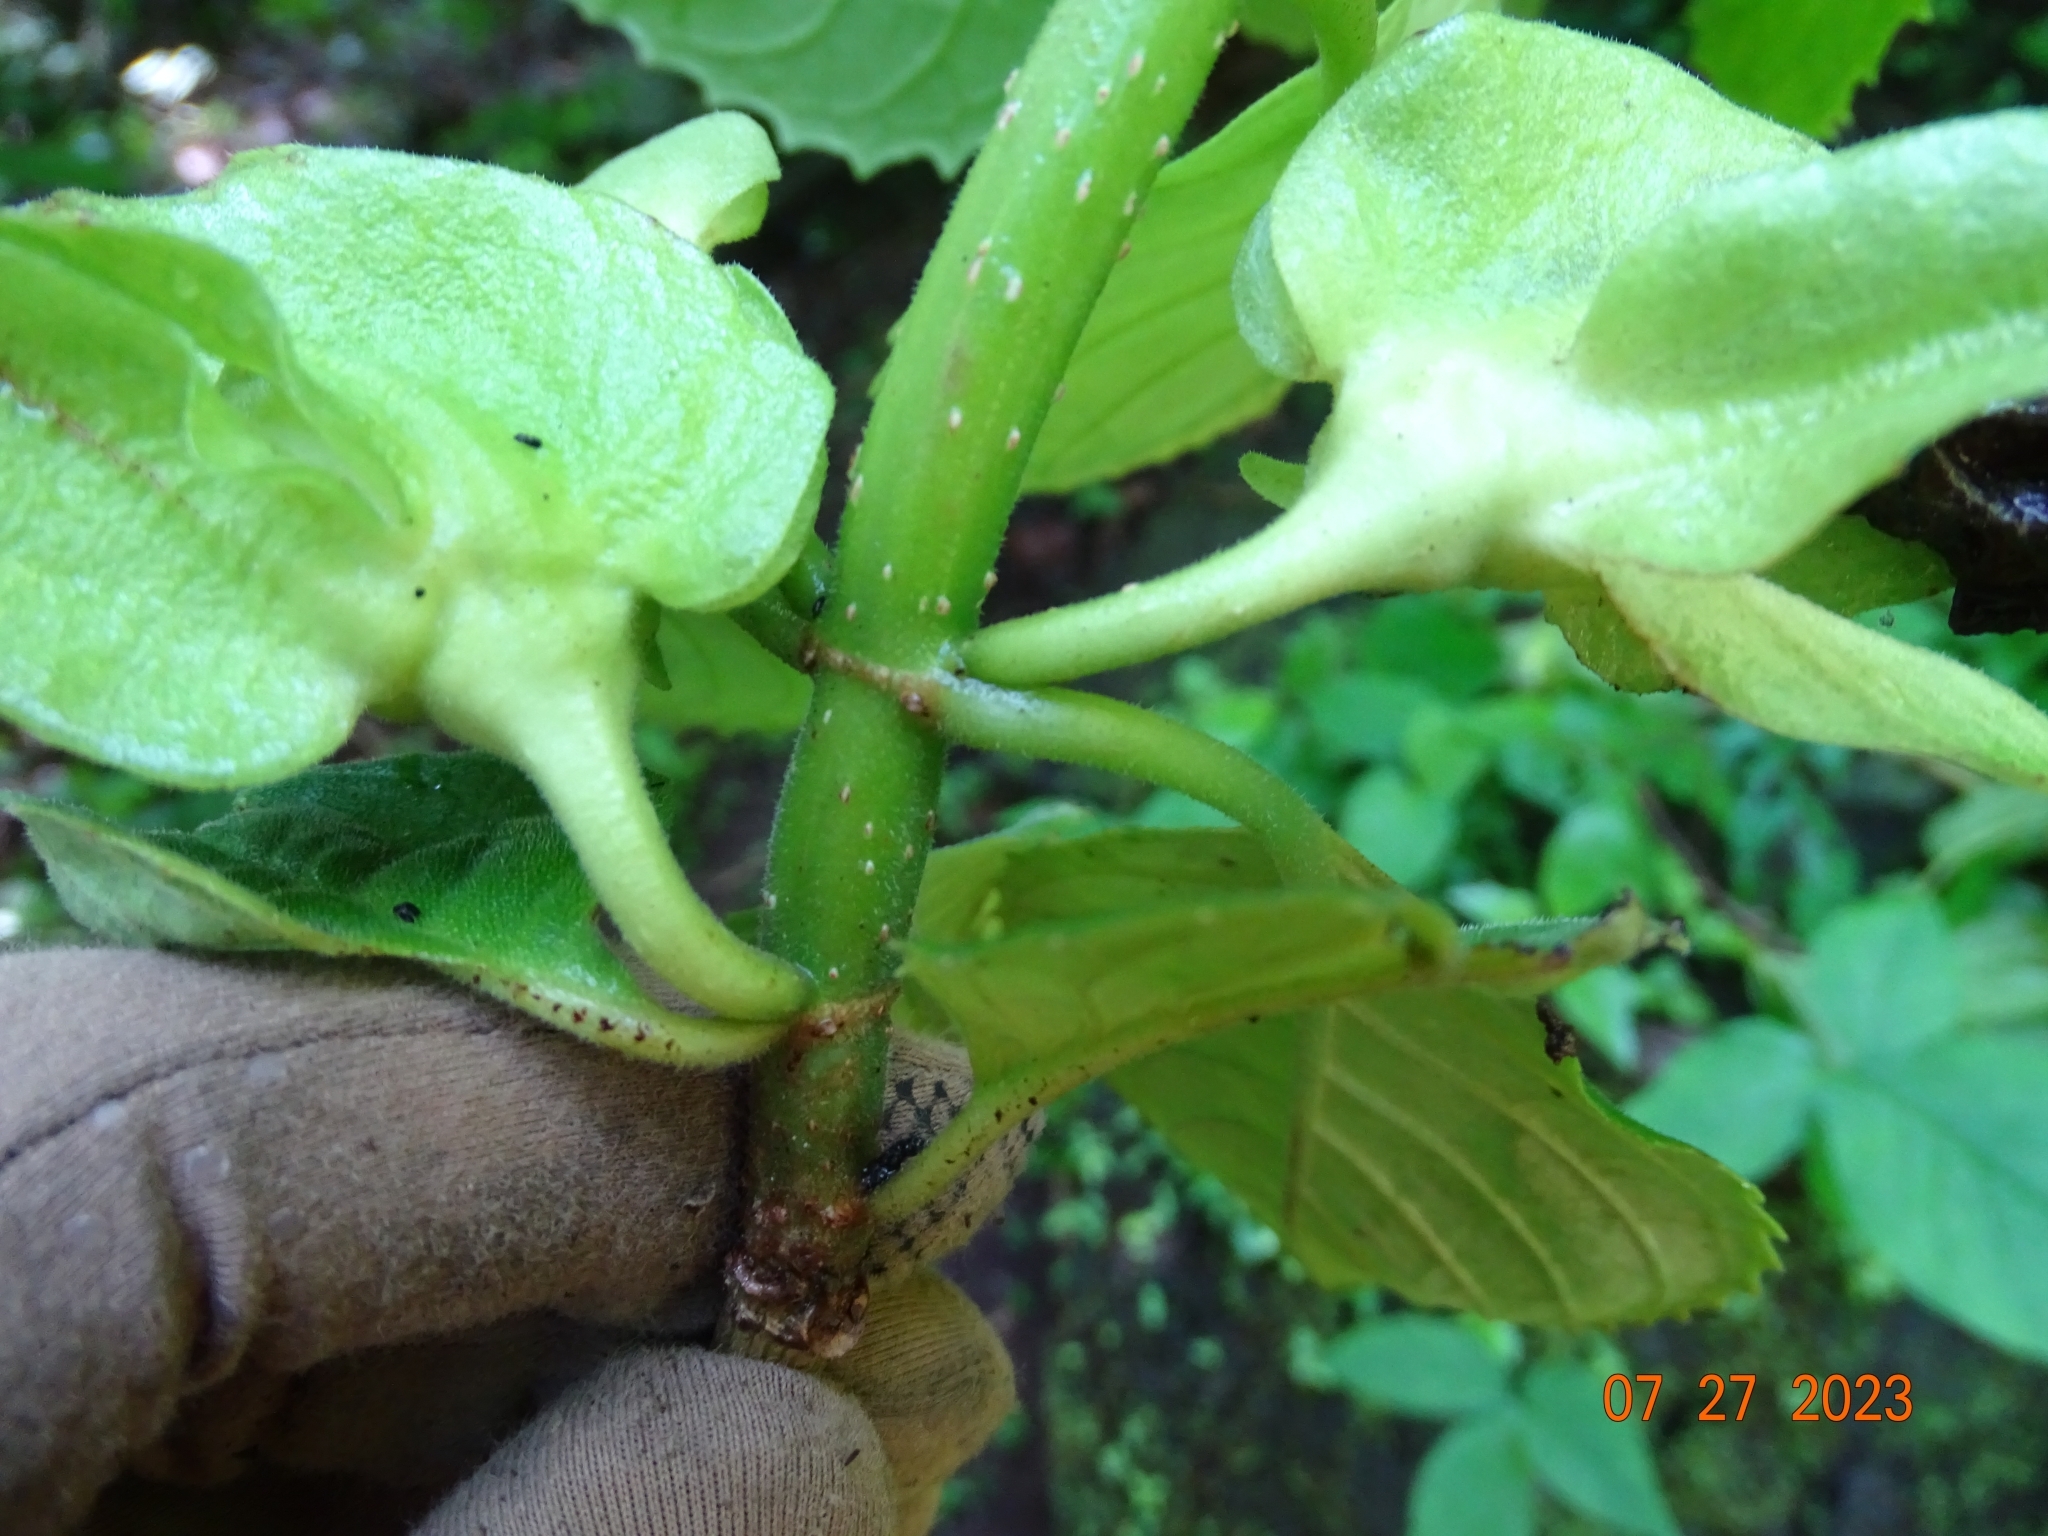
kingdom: Plantae
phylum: Tracheophyta
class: Magnoliopsida
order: Lamiales
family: Gesneriaceae
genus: Drymonia
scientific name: Drymonia serrulata
